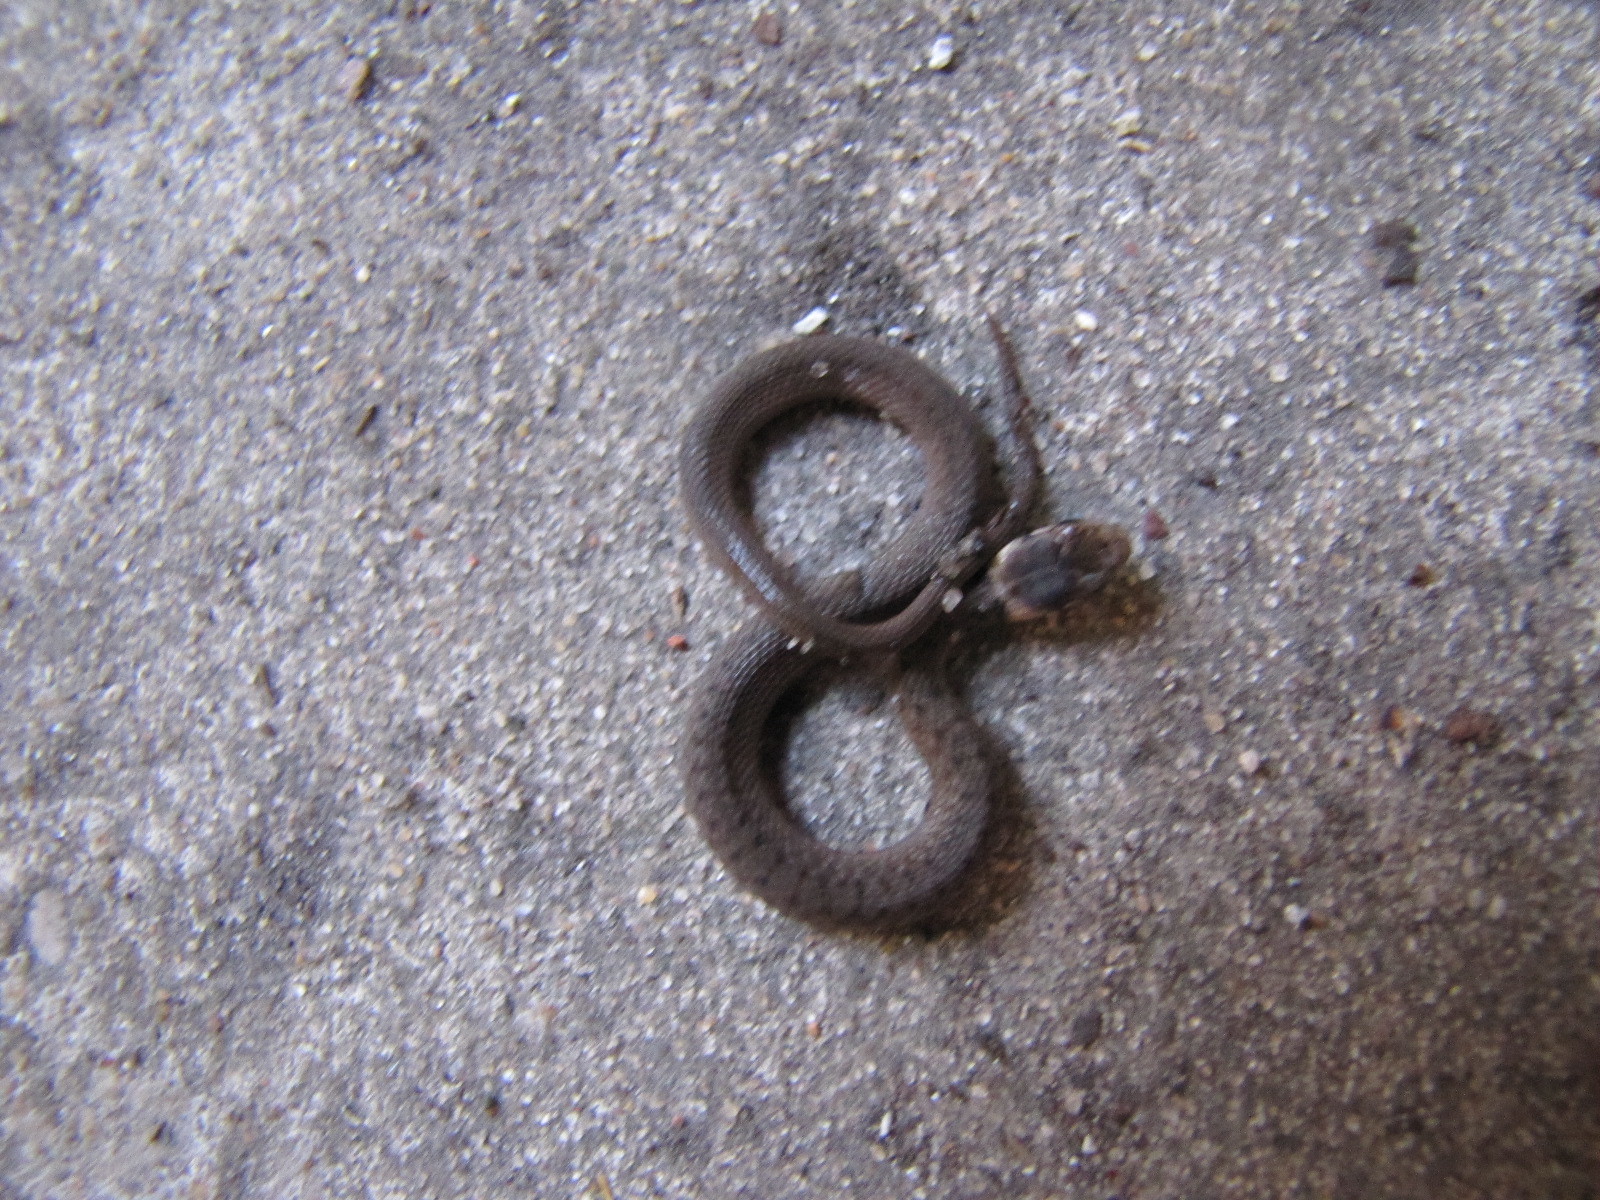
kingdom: Animalia
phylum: Chordata
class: Squamata
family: Colubridae
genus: Storeria
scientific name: Storeria dekayi
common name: (dekay’s) brown snake
